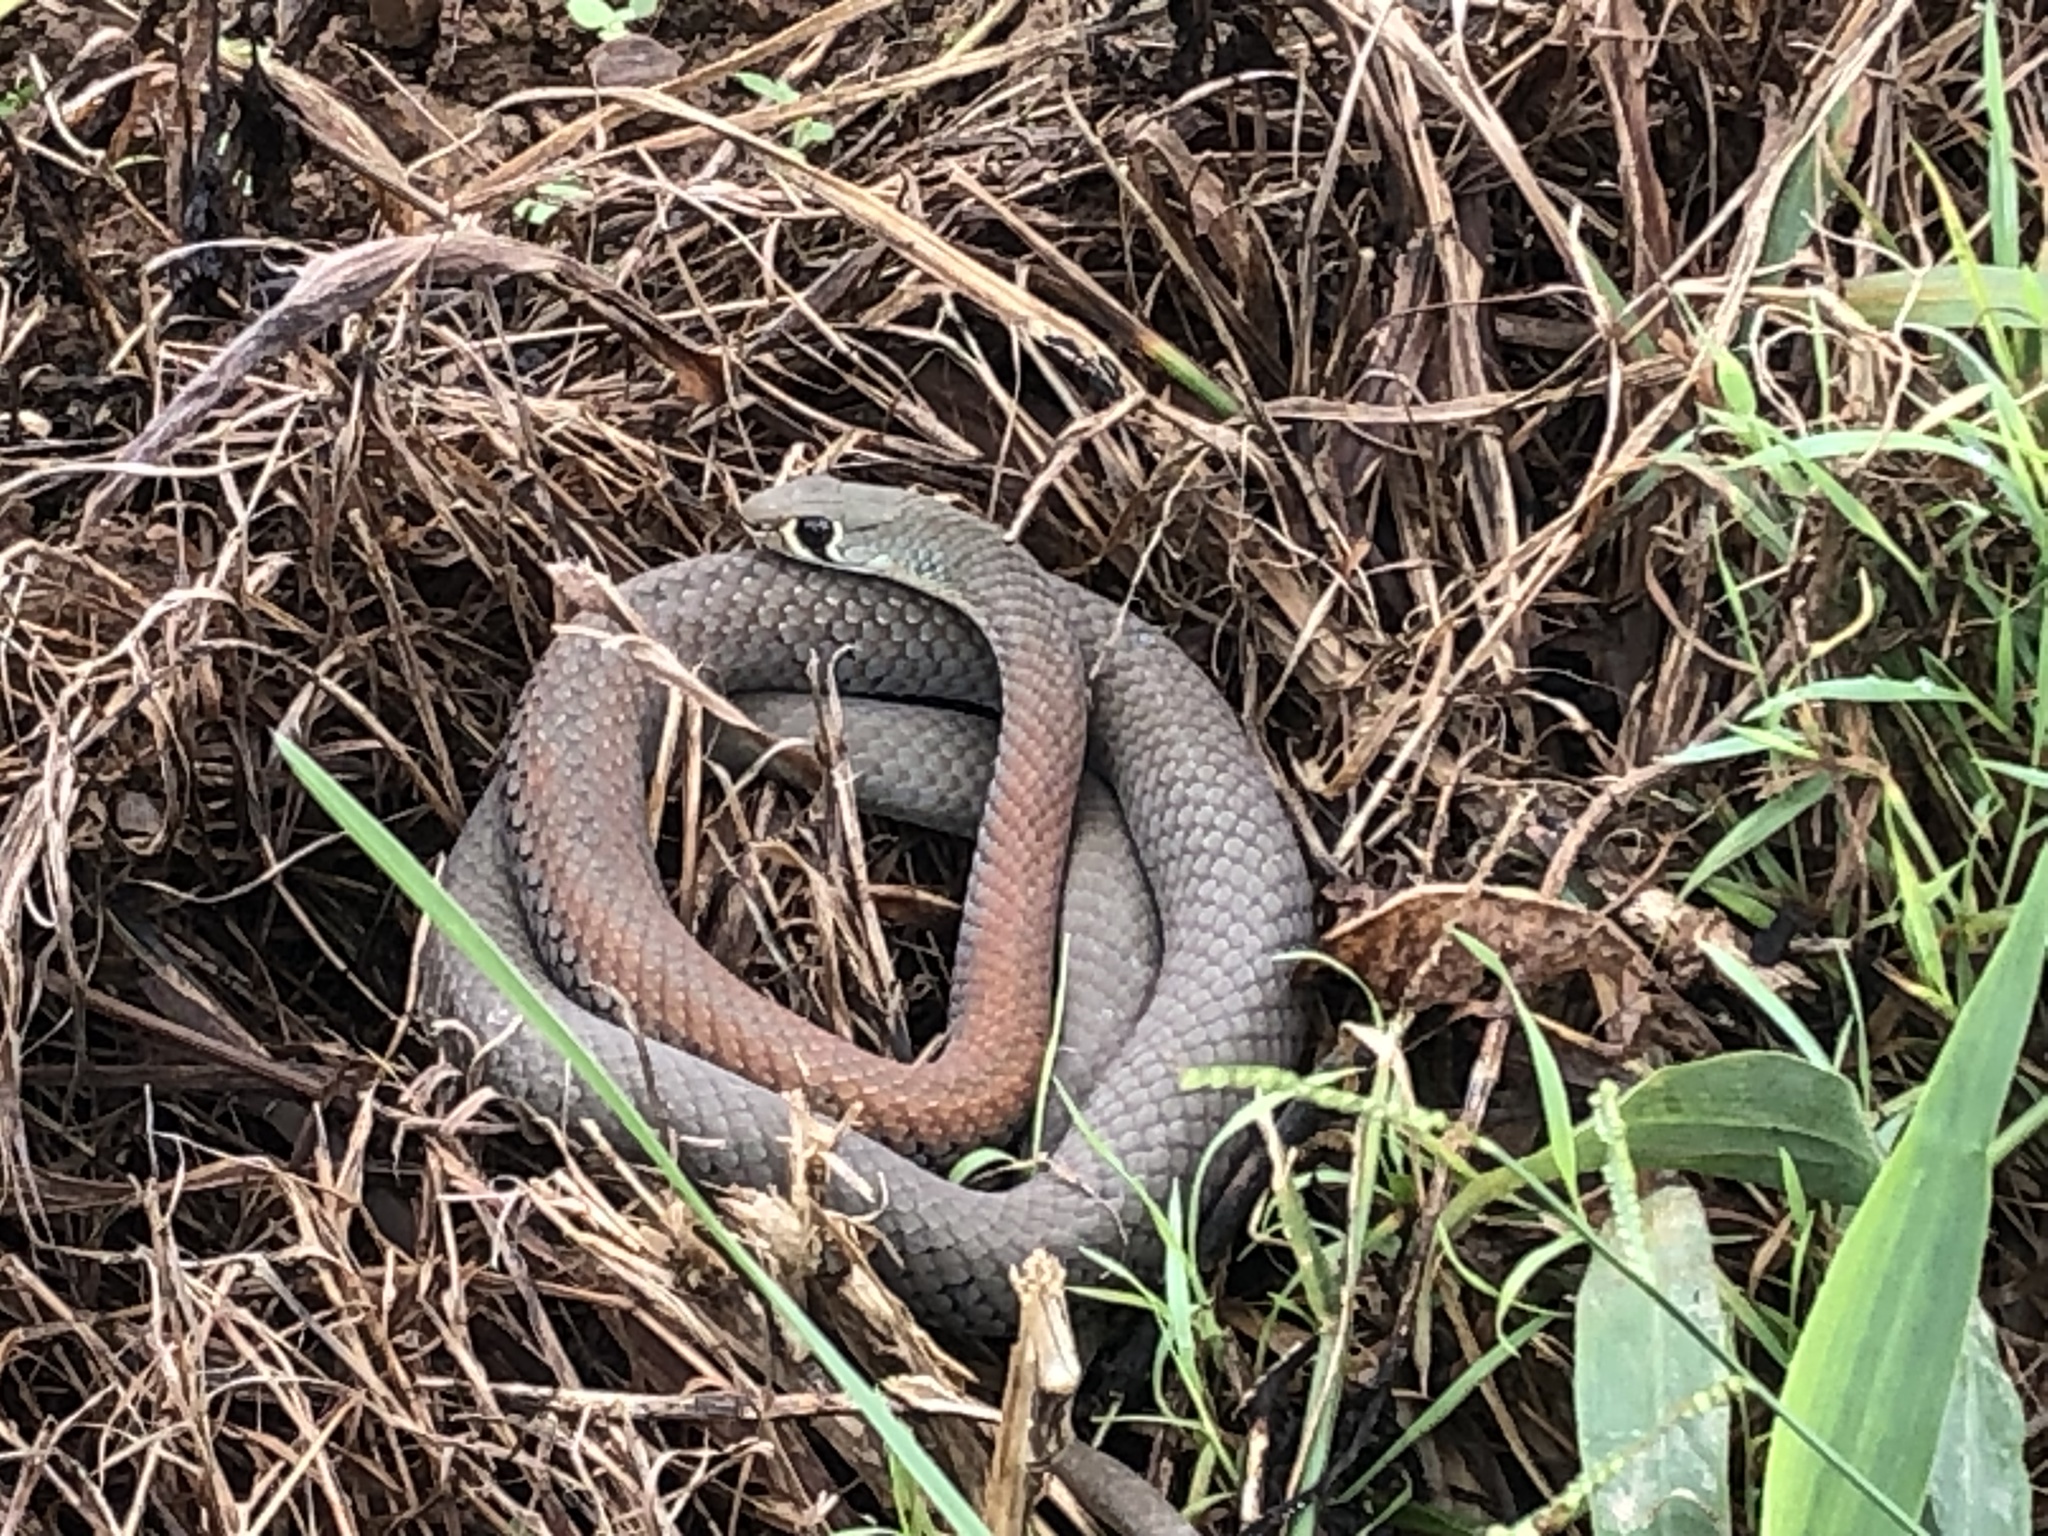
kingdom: Animalia
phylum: Chordata
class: Squamata
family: Elapidae
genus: Demansia
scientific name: Demansia psammophis
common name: Yellow-faced whip snake
